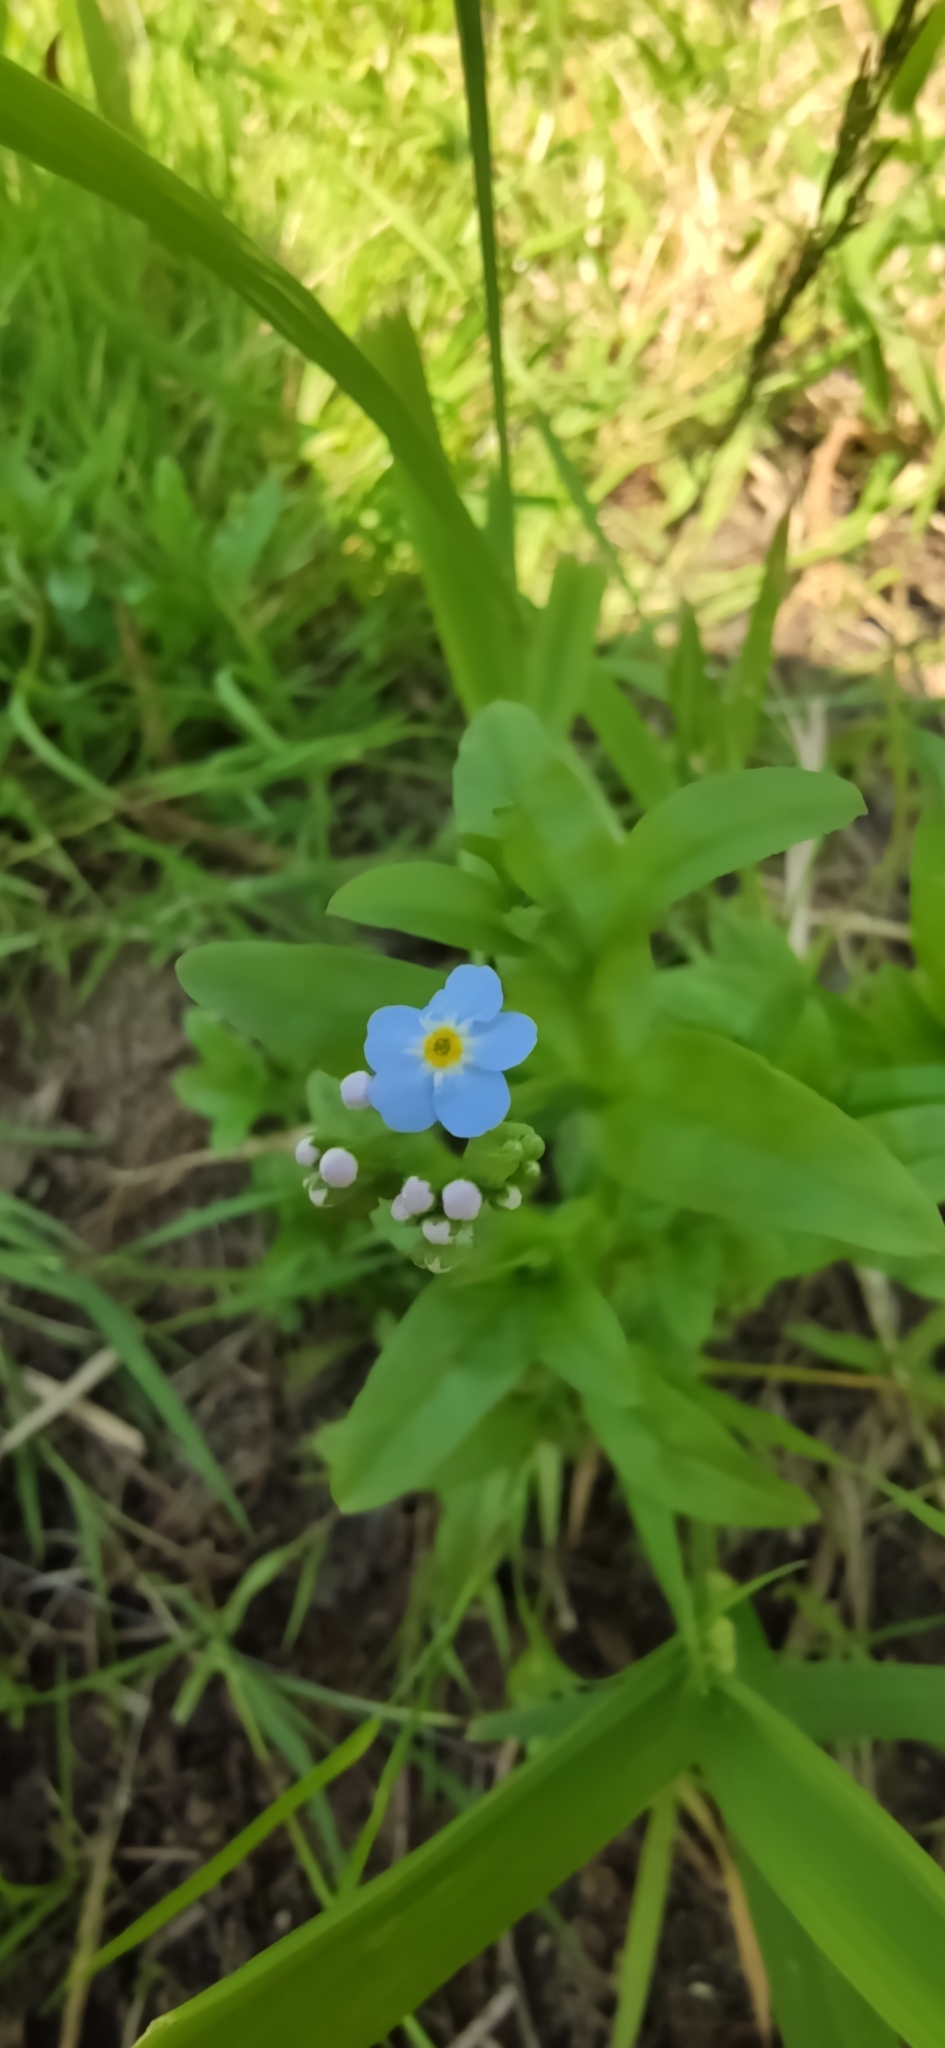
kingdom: Plantae
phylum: Tracheophyta
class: Magnoliopsida
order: Boraginales
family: Boraginaceae
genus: Myosotis
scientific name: Myosotis scorpioides
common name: Water forget-me-not
